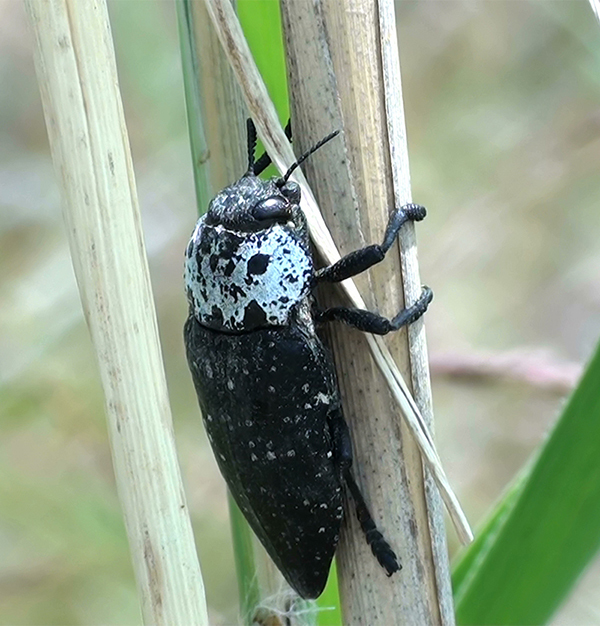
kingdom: Animalia
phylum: Arthropoda
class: Insecta
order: Coleoptera
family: Buprestidae
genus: Capnodis
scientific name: Capnodis tenebrionis
